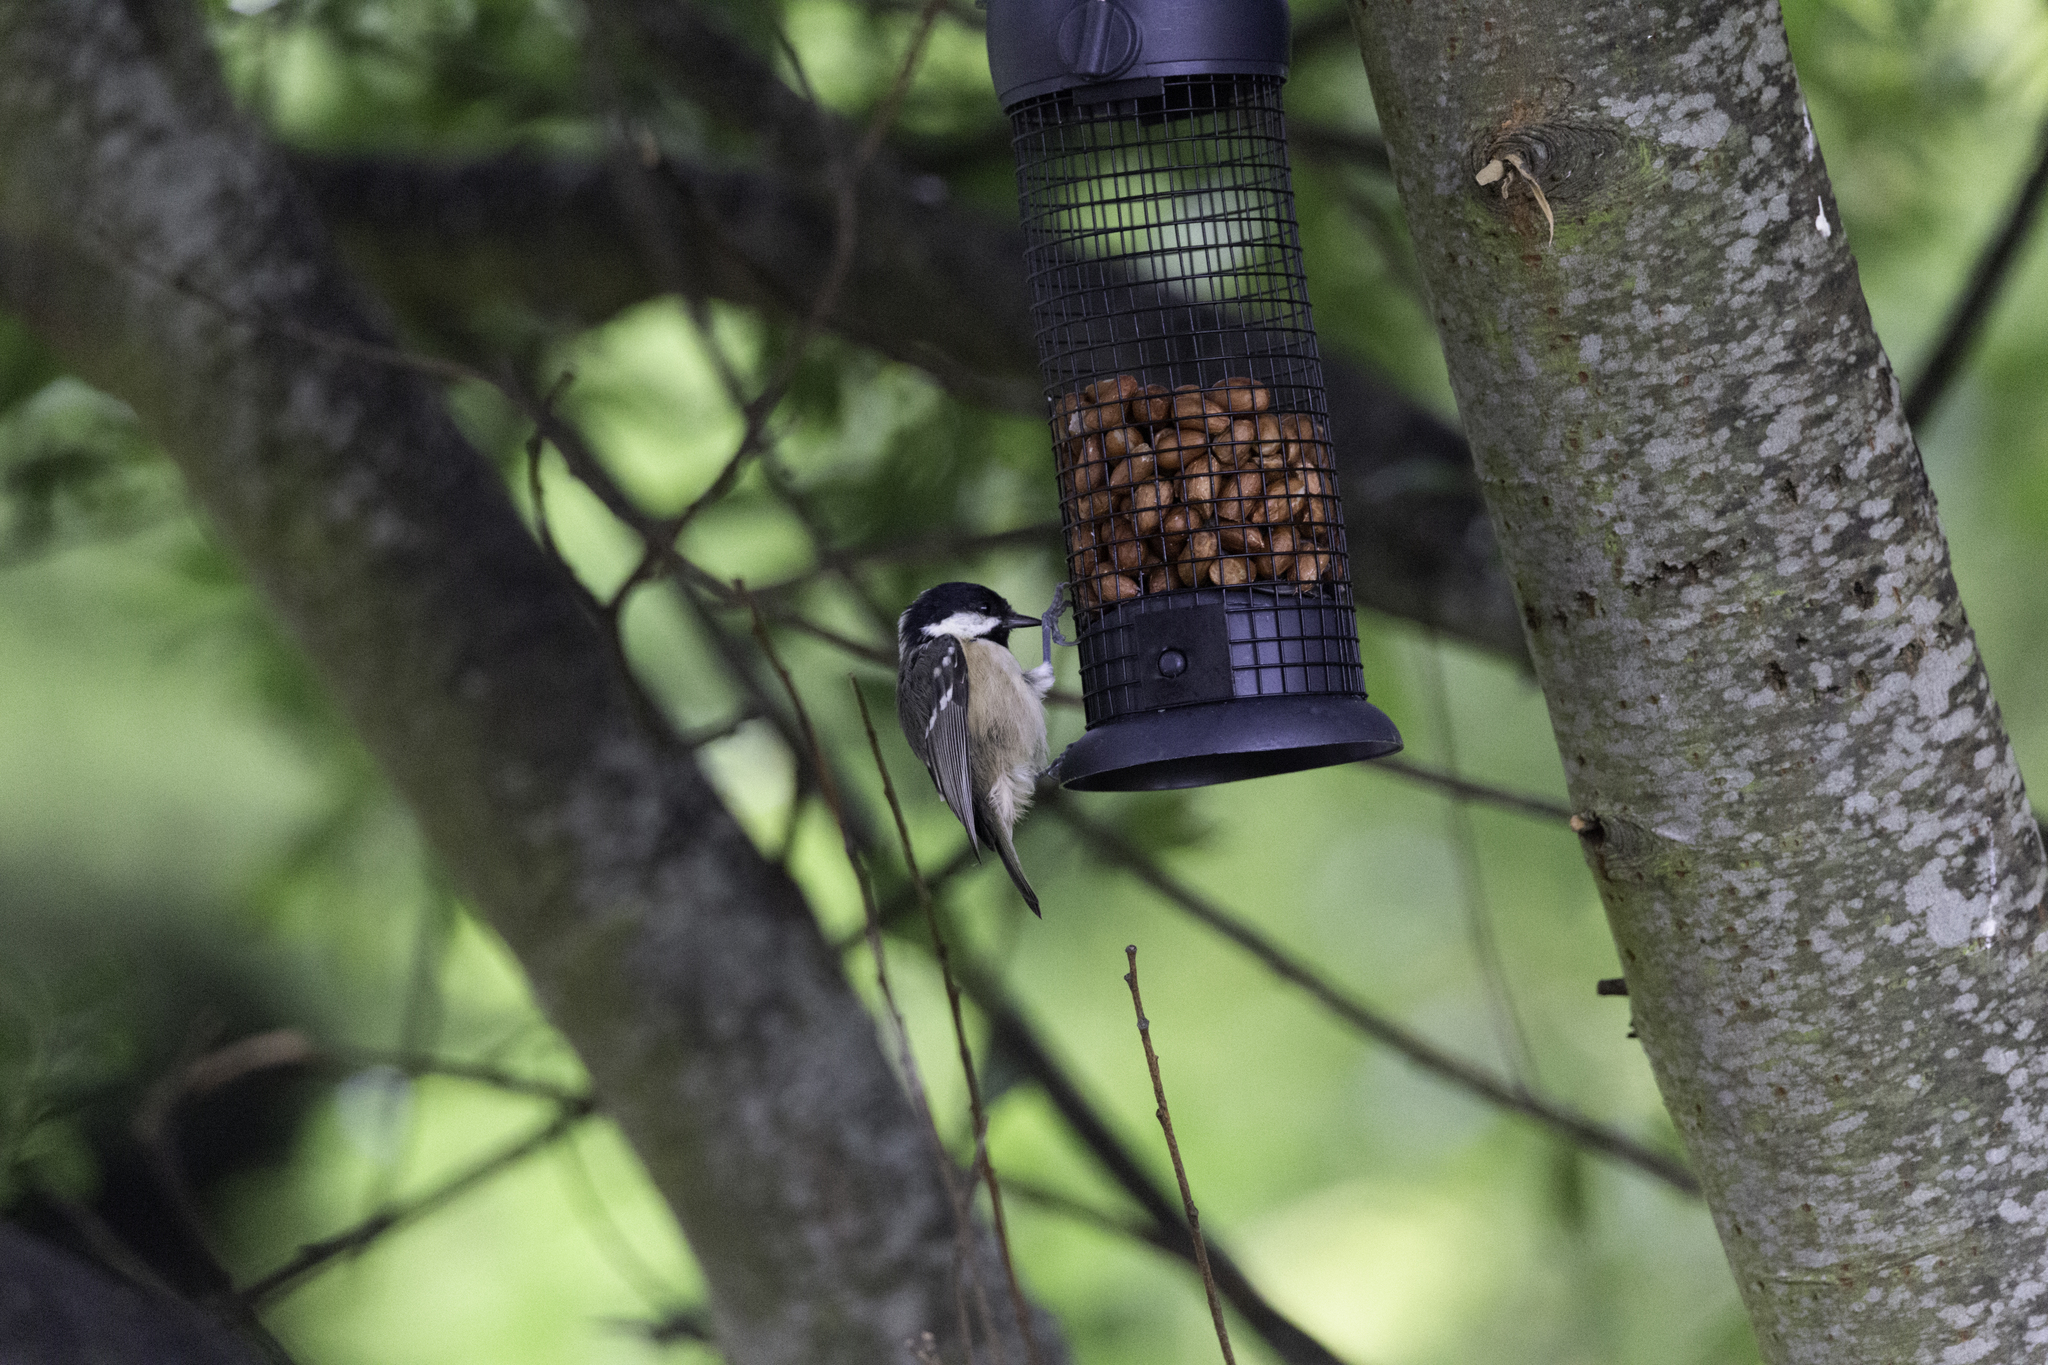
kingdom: Animalia
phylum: Chordata
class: Aves
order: Passeriformes
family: Paridae
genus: Periparus
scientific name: Periparus ater
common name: Coal tit
